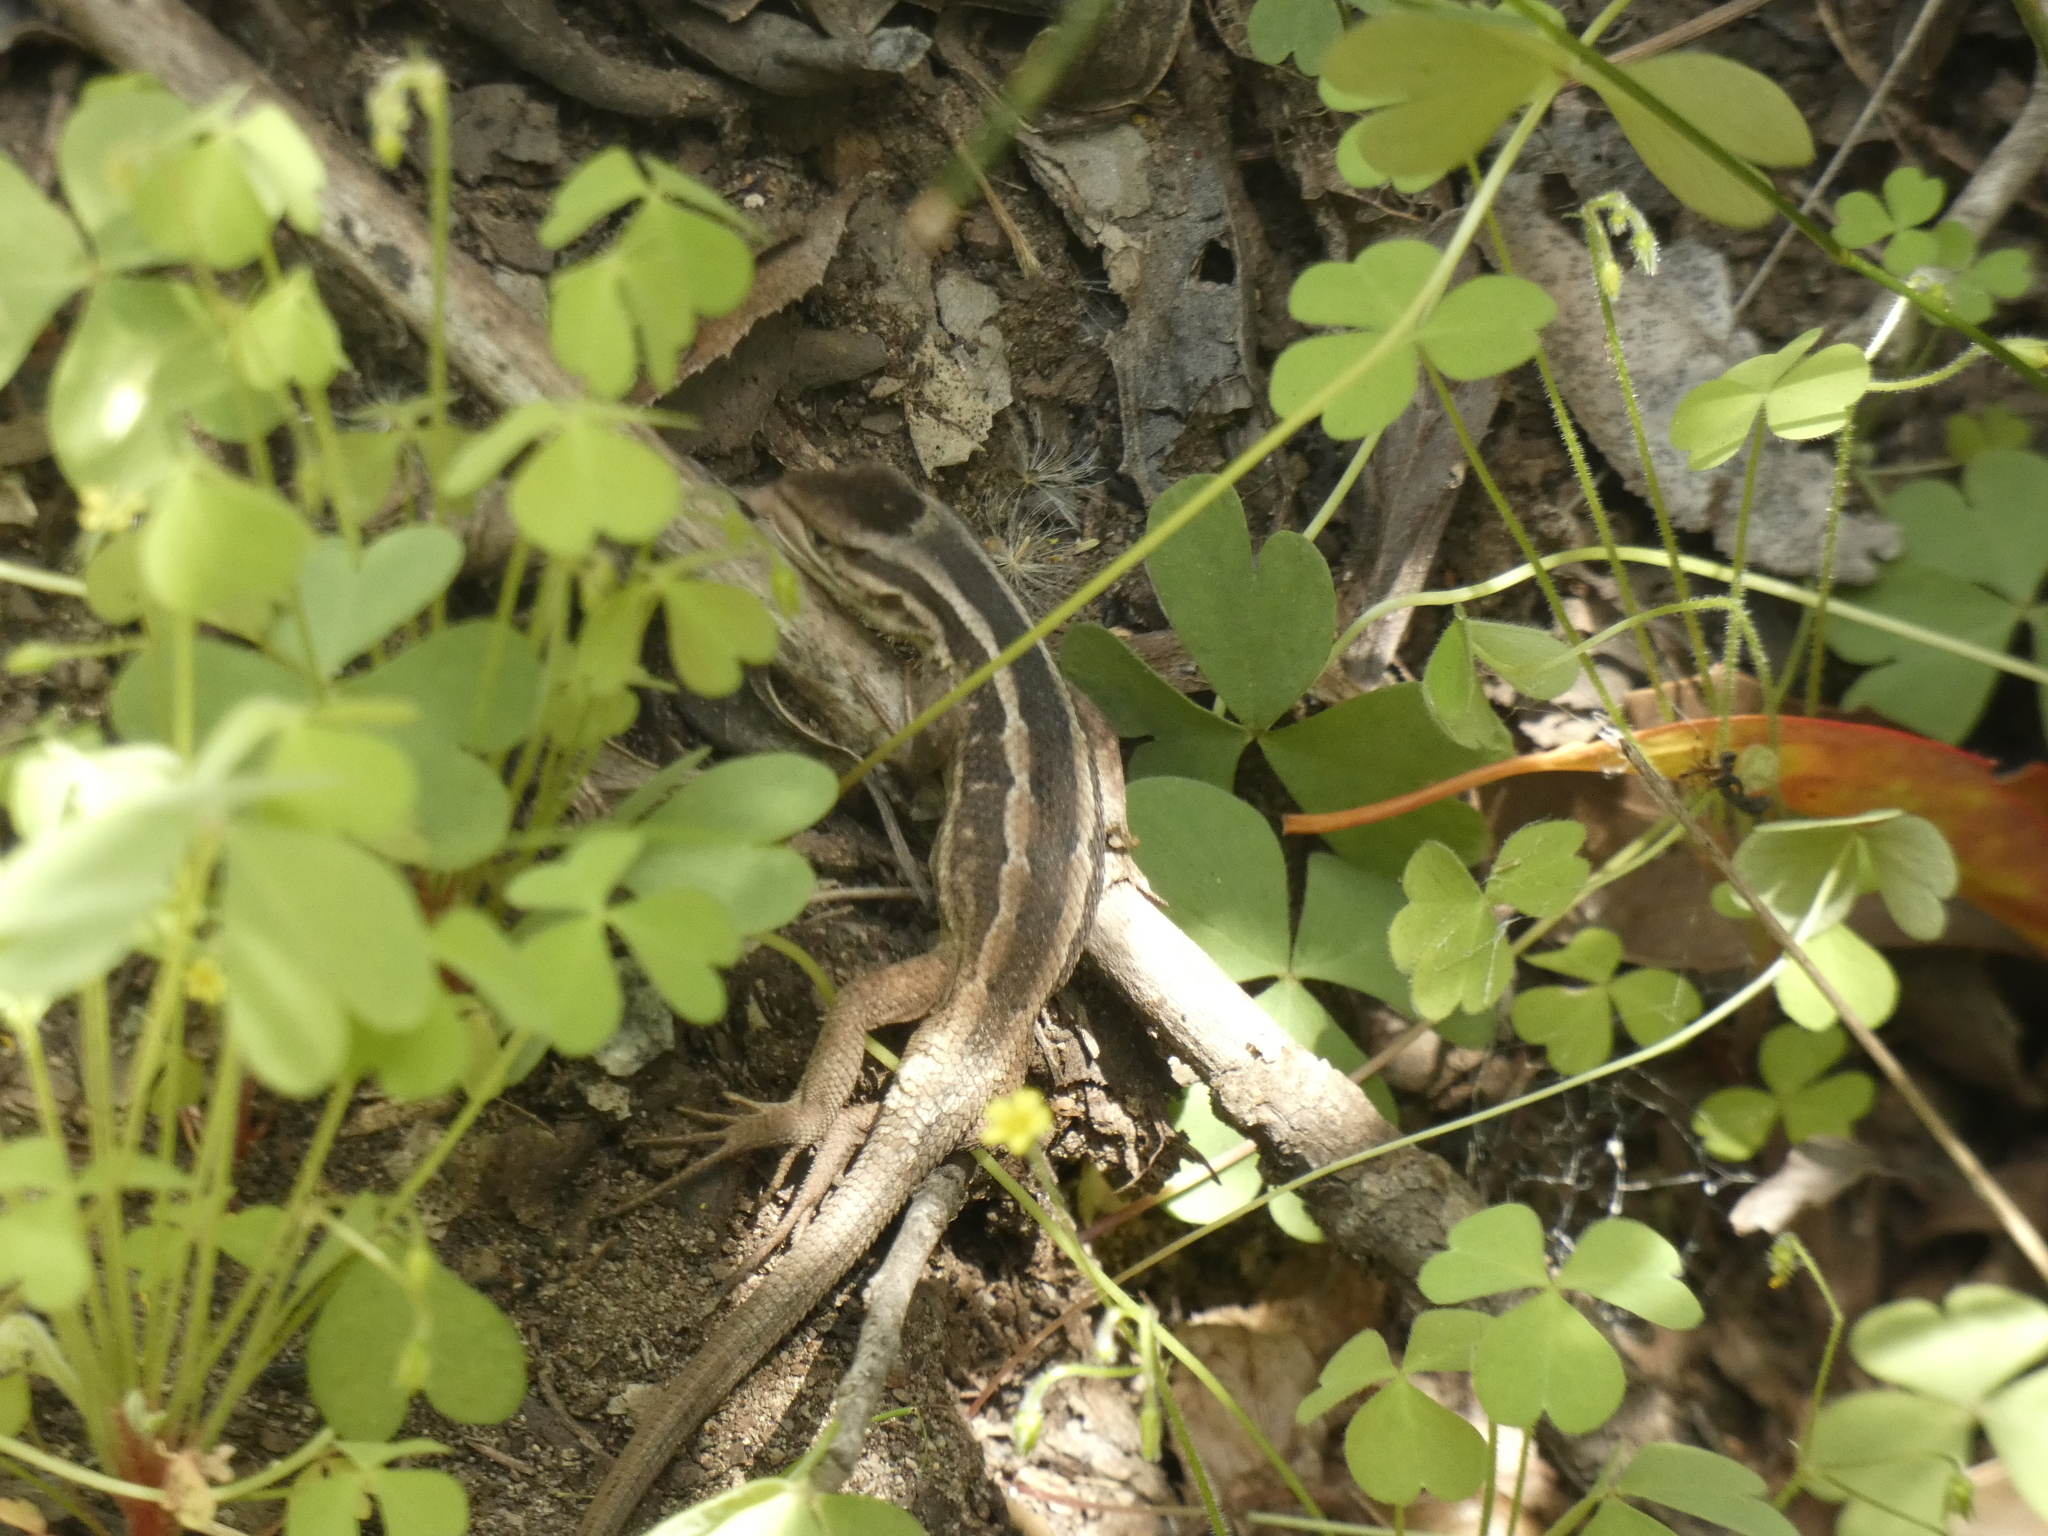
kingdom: Animalia
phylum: Chordata
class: Squamata
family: Liolaemidae
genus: Liolaemus
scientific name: Liolaemus schroederi
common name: Schroeder's tree iguana
